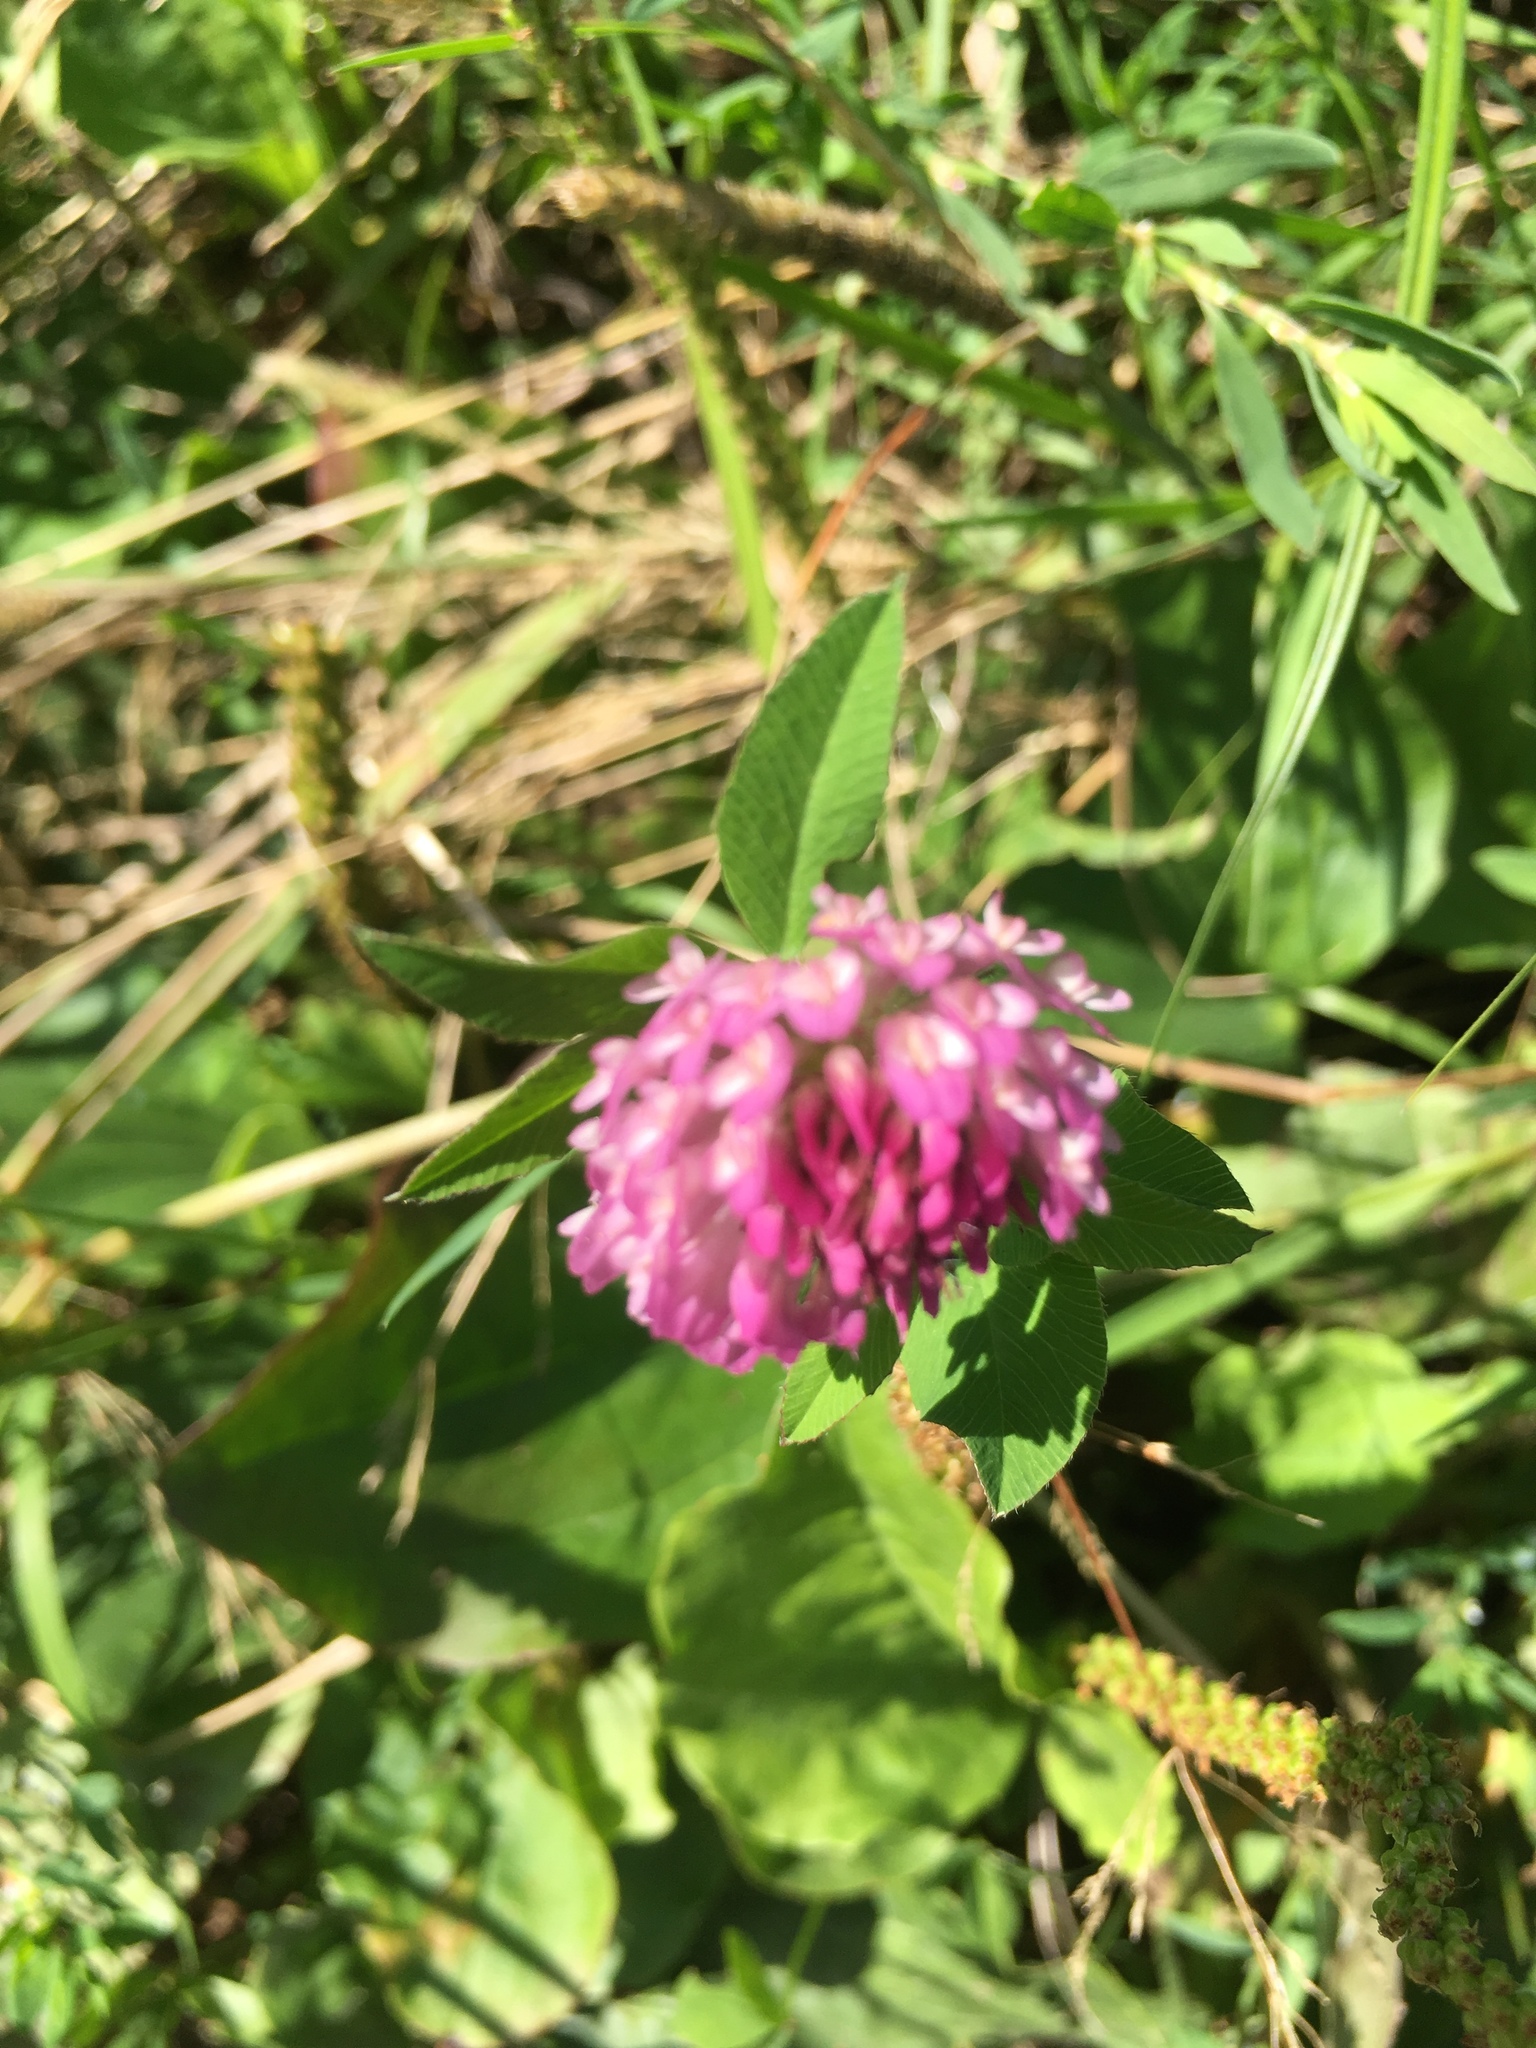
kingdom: Plantae
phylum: Tracheophyta
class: Magnoliopsida
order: Fabales
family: Fabaceae
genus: Trifolium
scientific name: Trifolium pratense
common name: Red clover
